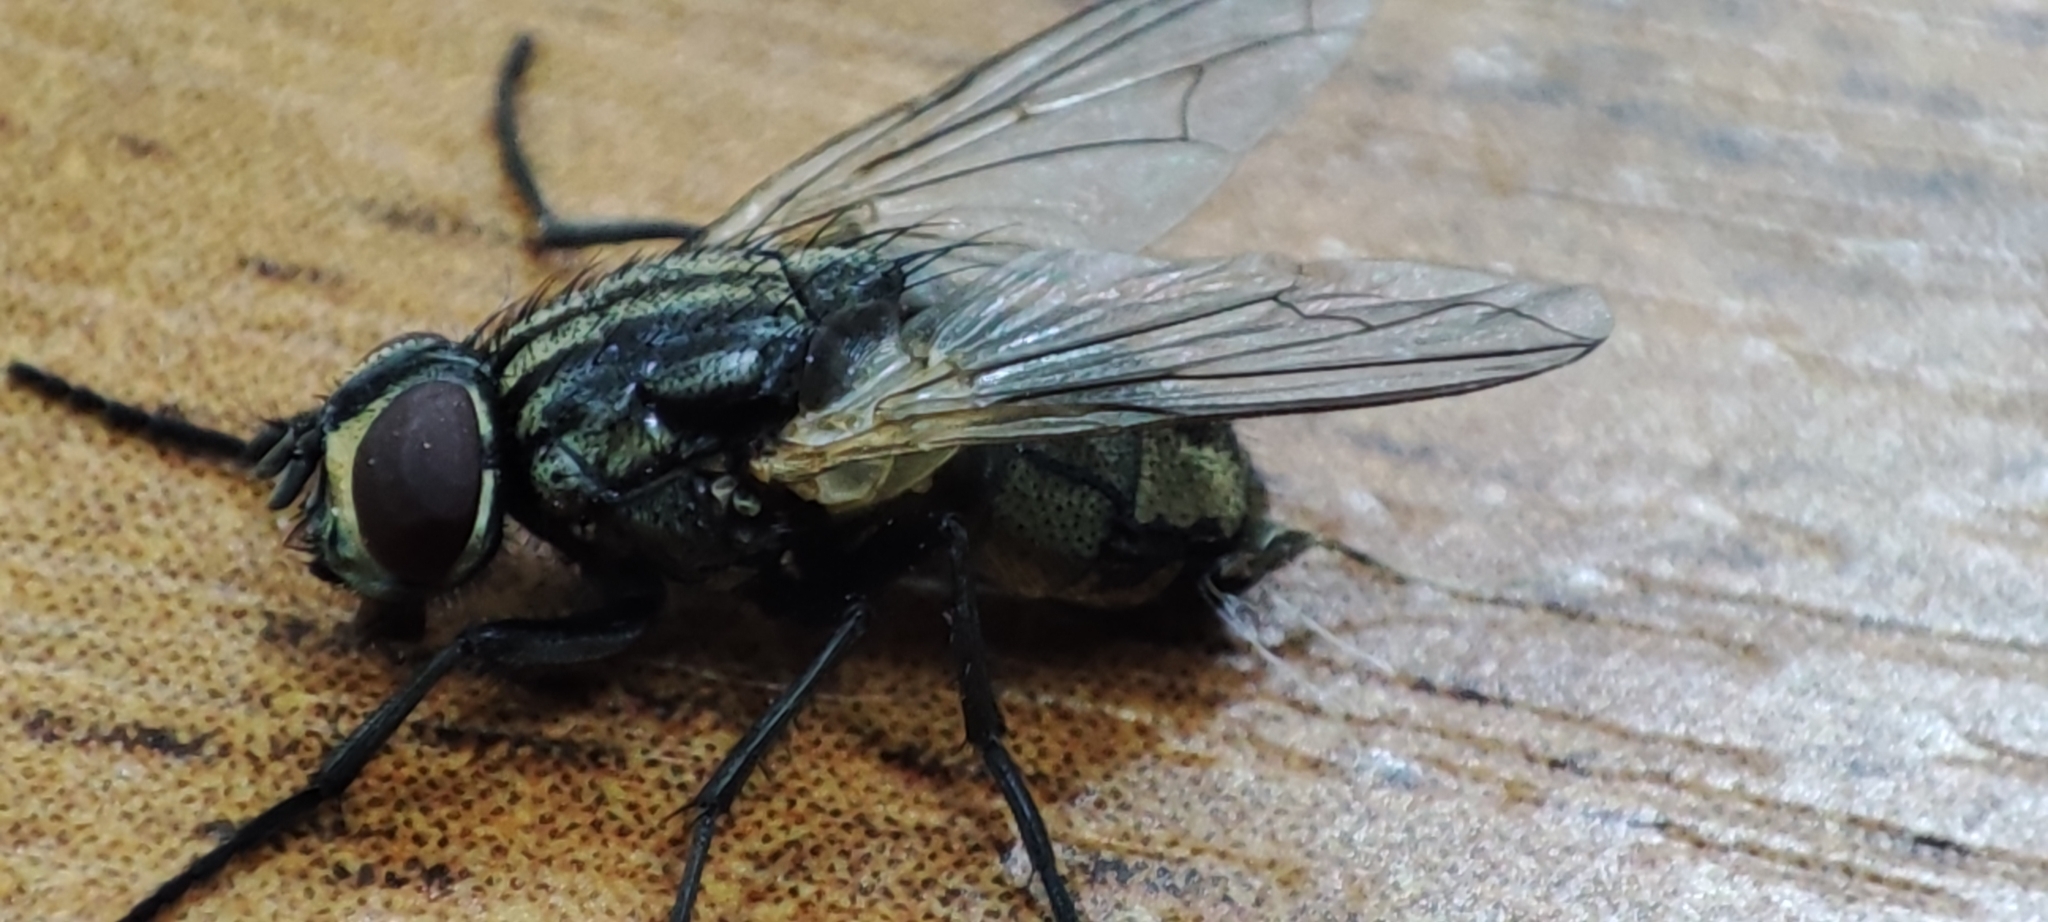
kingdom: Animalia
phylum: Arthropoda
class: Insecta
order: Diptera
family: Muscidae
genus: Musca
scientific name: Musca domestica
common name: House fly
